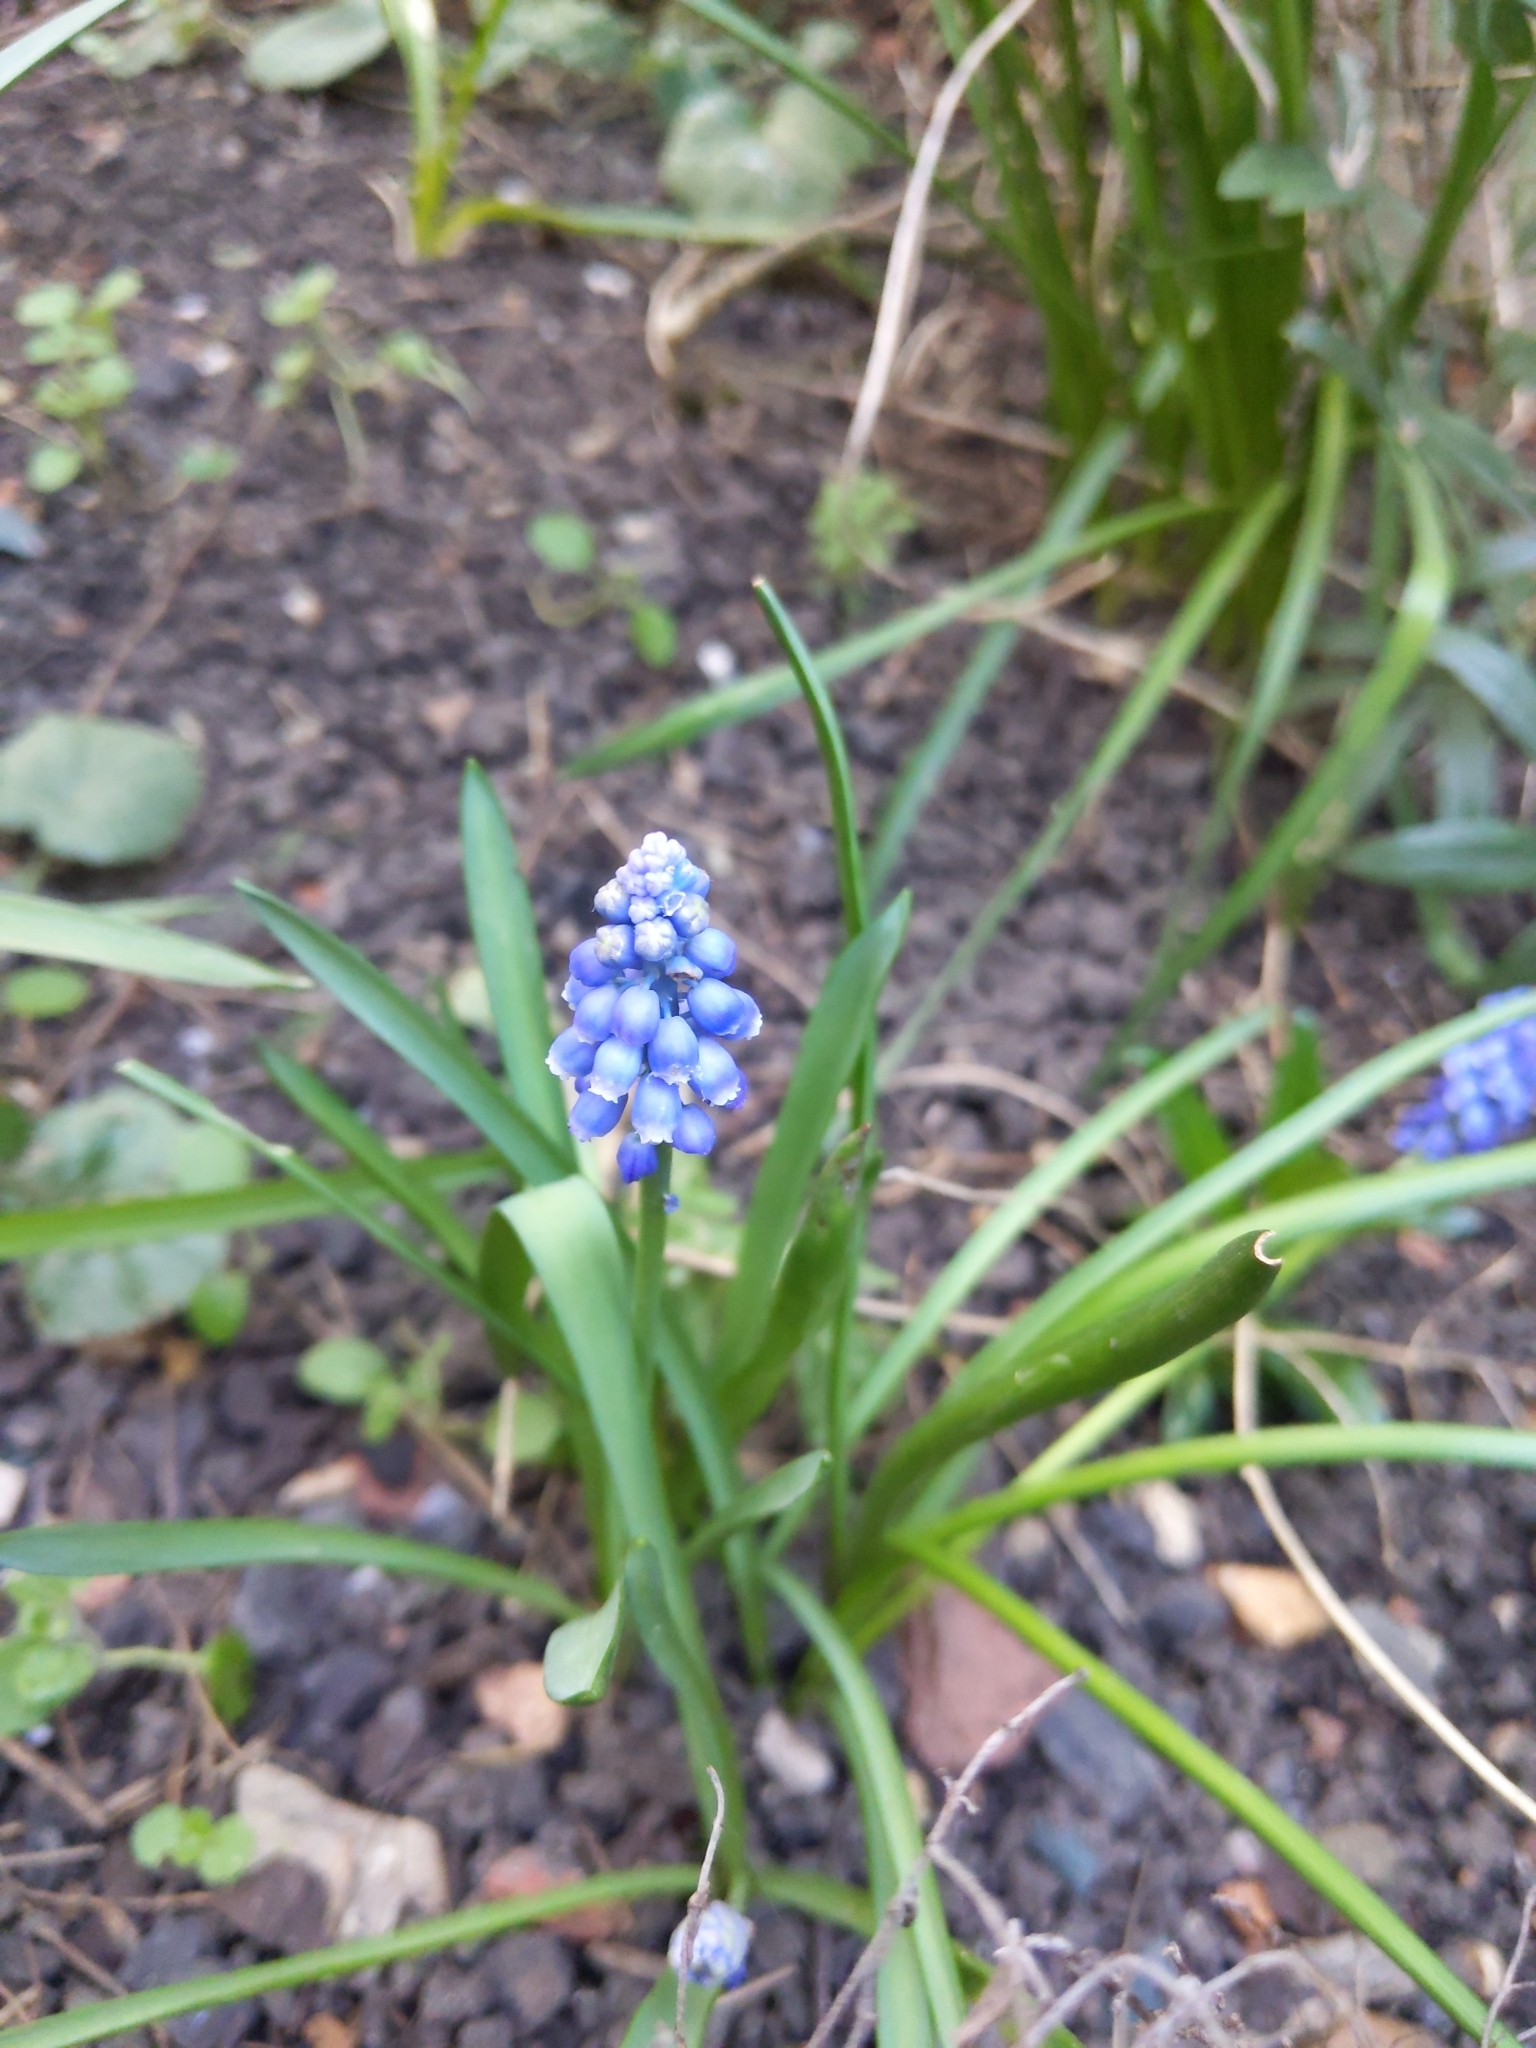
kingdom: Plantae
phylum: Tracheophyta
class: Liliopsida
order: Asparagales
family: Asparagaceae
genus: Muscari
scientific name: Muscari armeniacum
